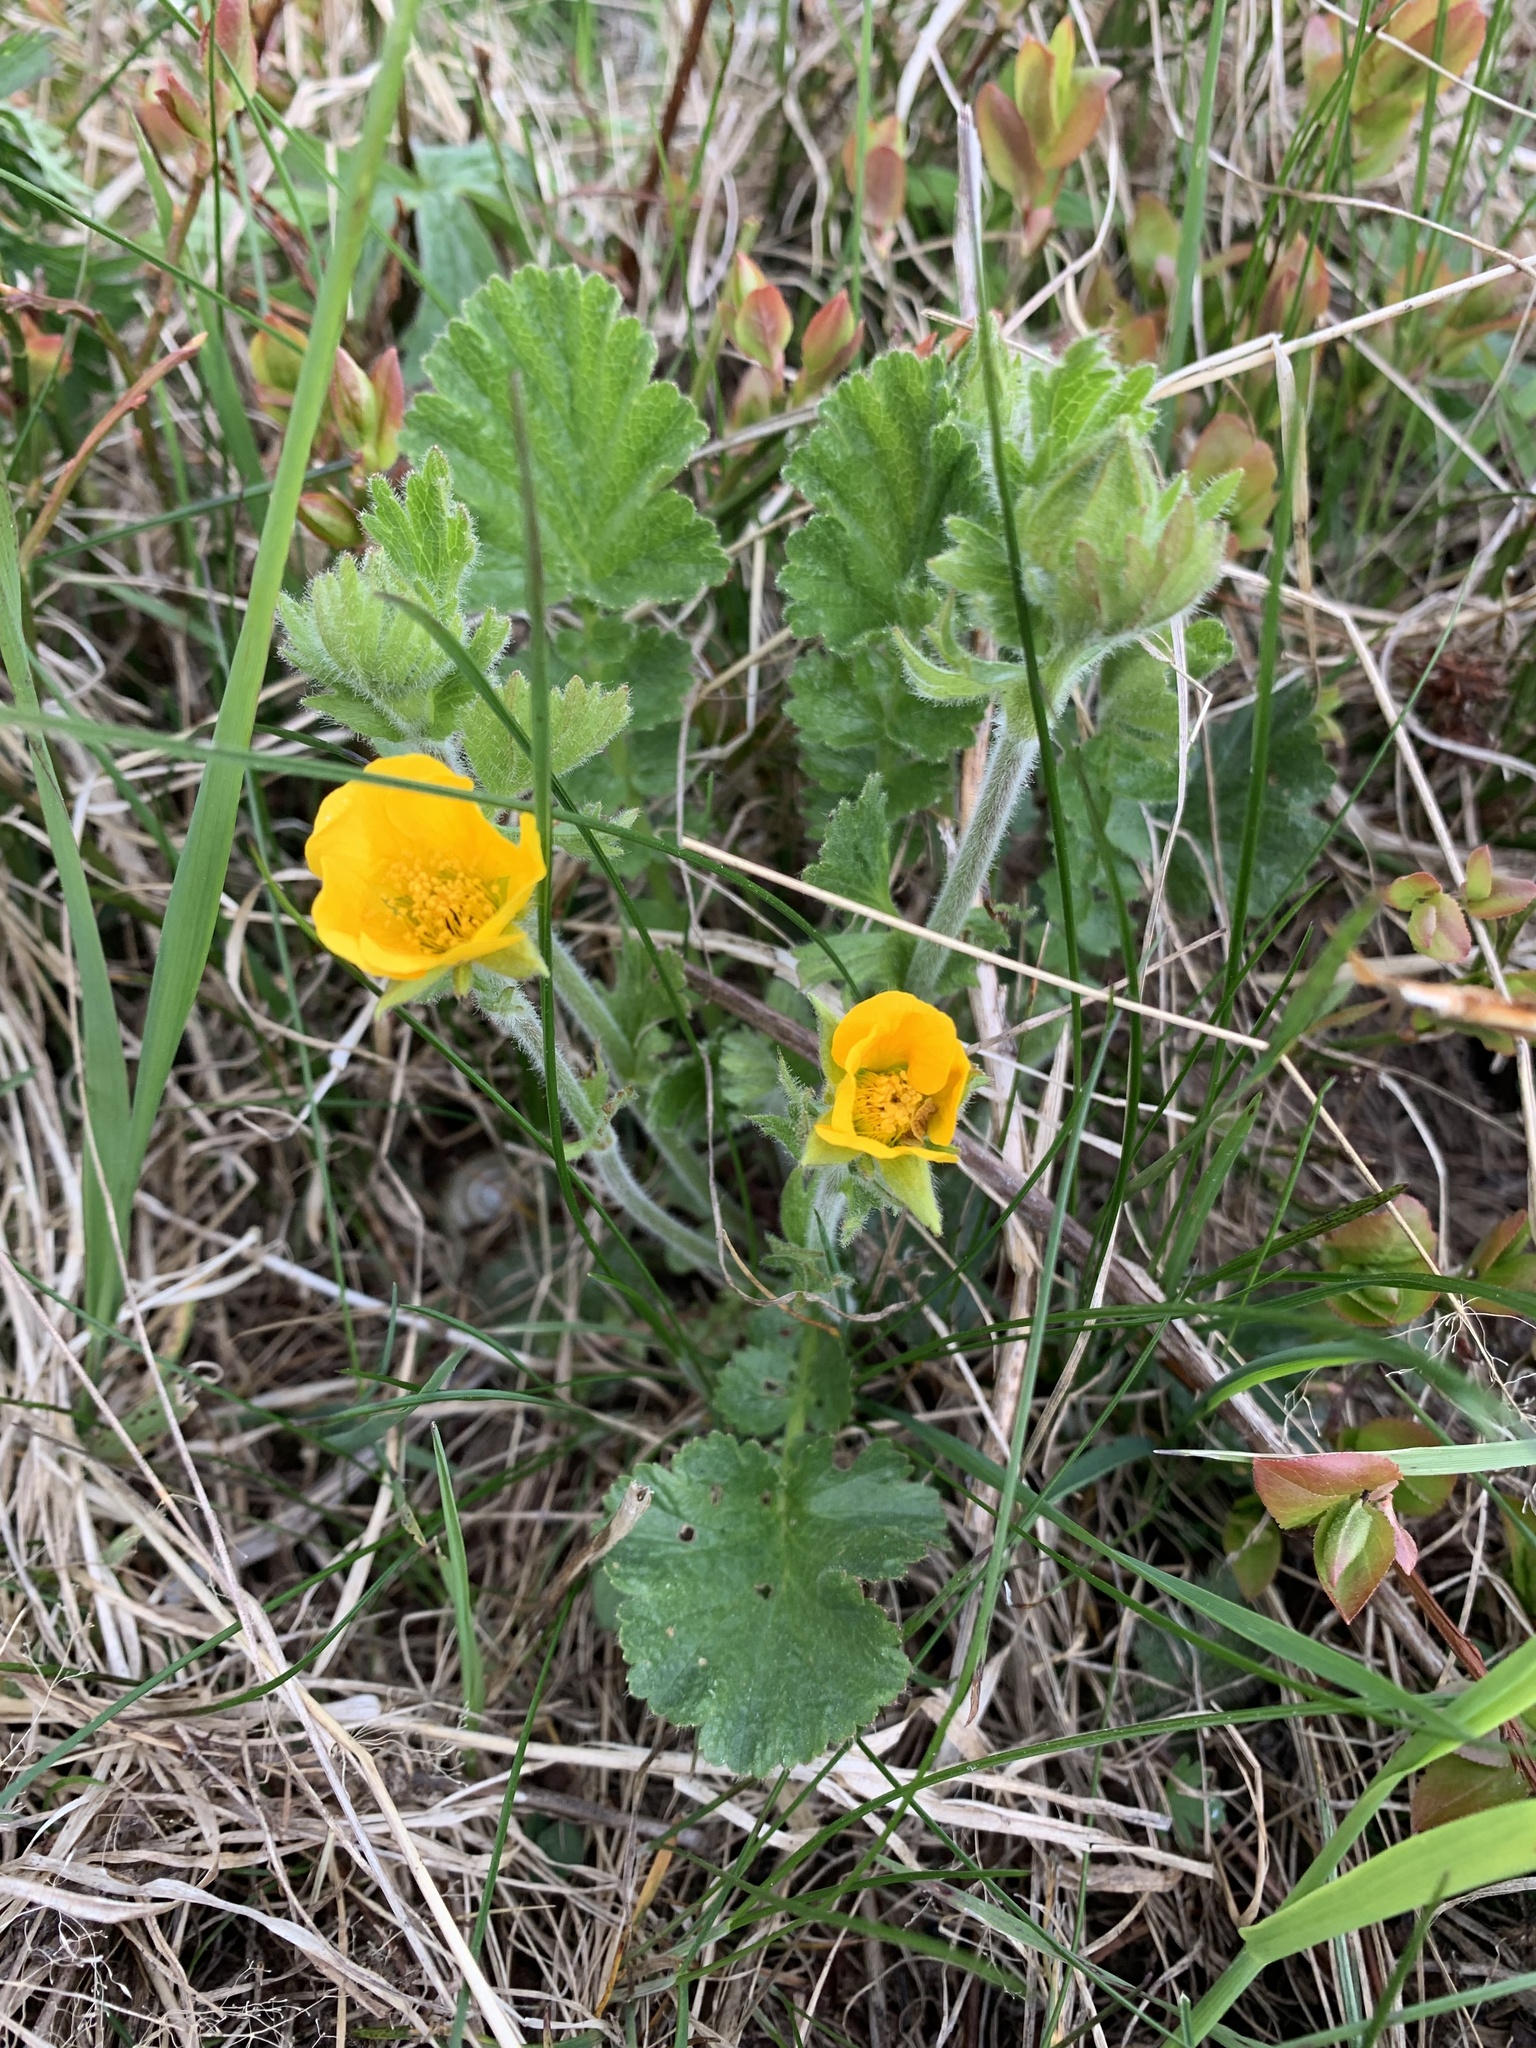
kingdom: Plantae
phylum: Tracheophyta
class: Magnoliopsida
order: Rosales
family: Rosaceae
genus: Geum
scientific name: Geum montanum
